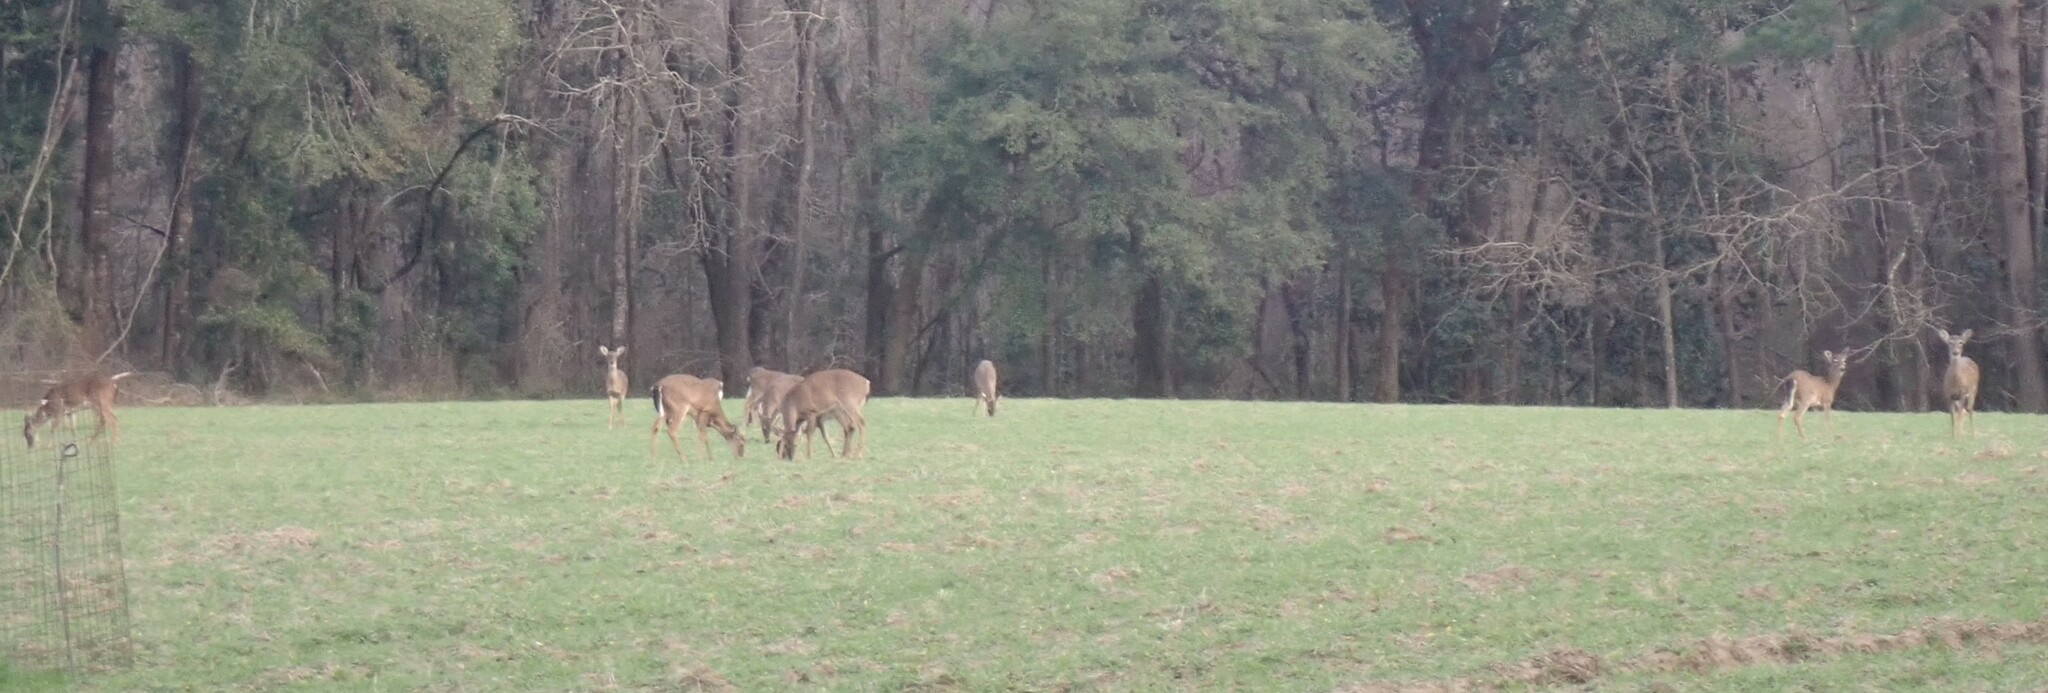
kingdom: Animalia
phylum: Chordata
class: Mammalia
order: Artiodactyla
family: Cervidae
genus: Odocoileus
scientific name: Odocoileus virginianus
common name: White-tailed deer
